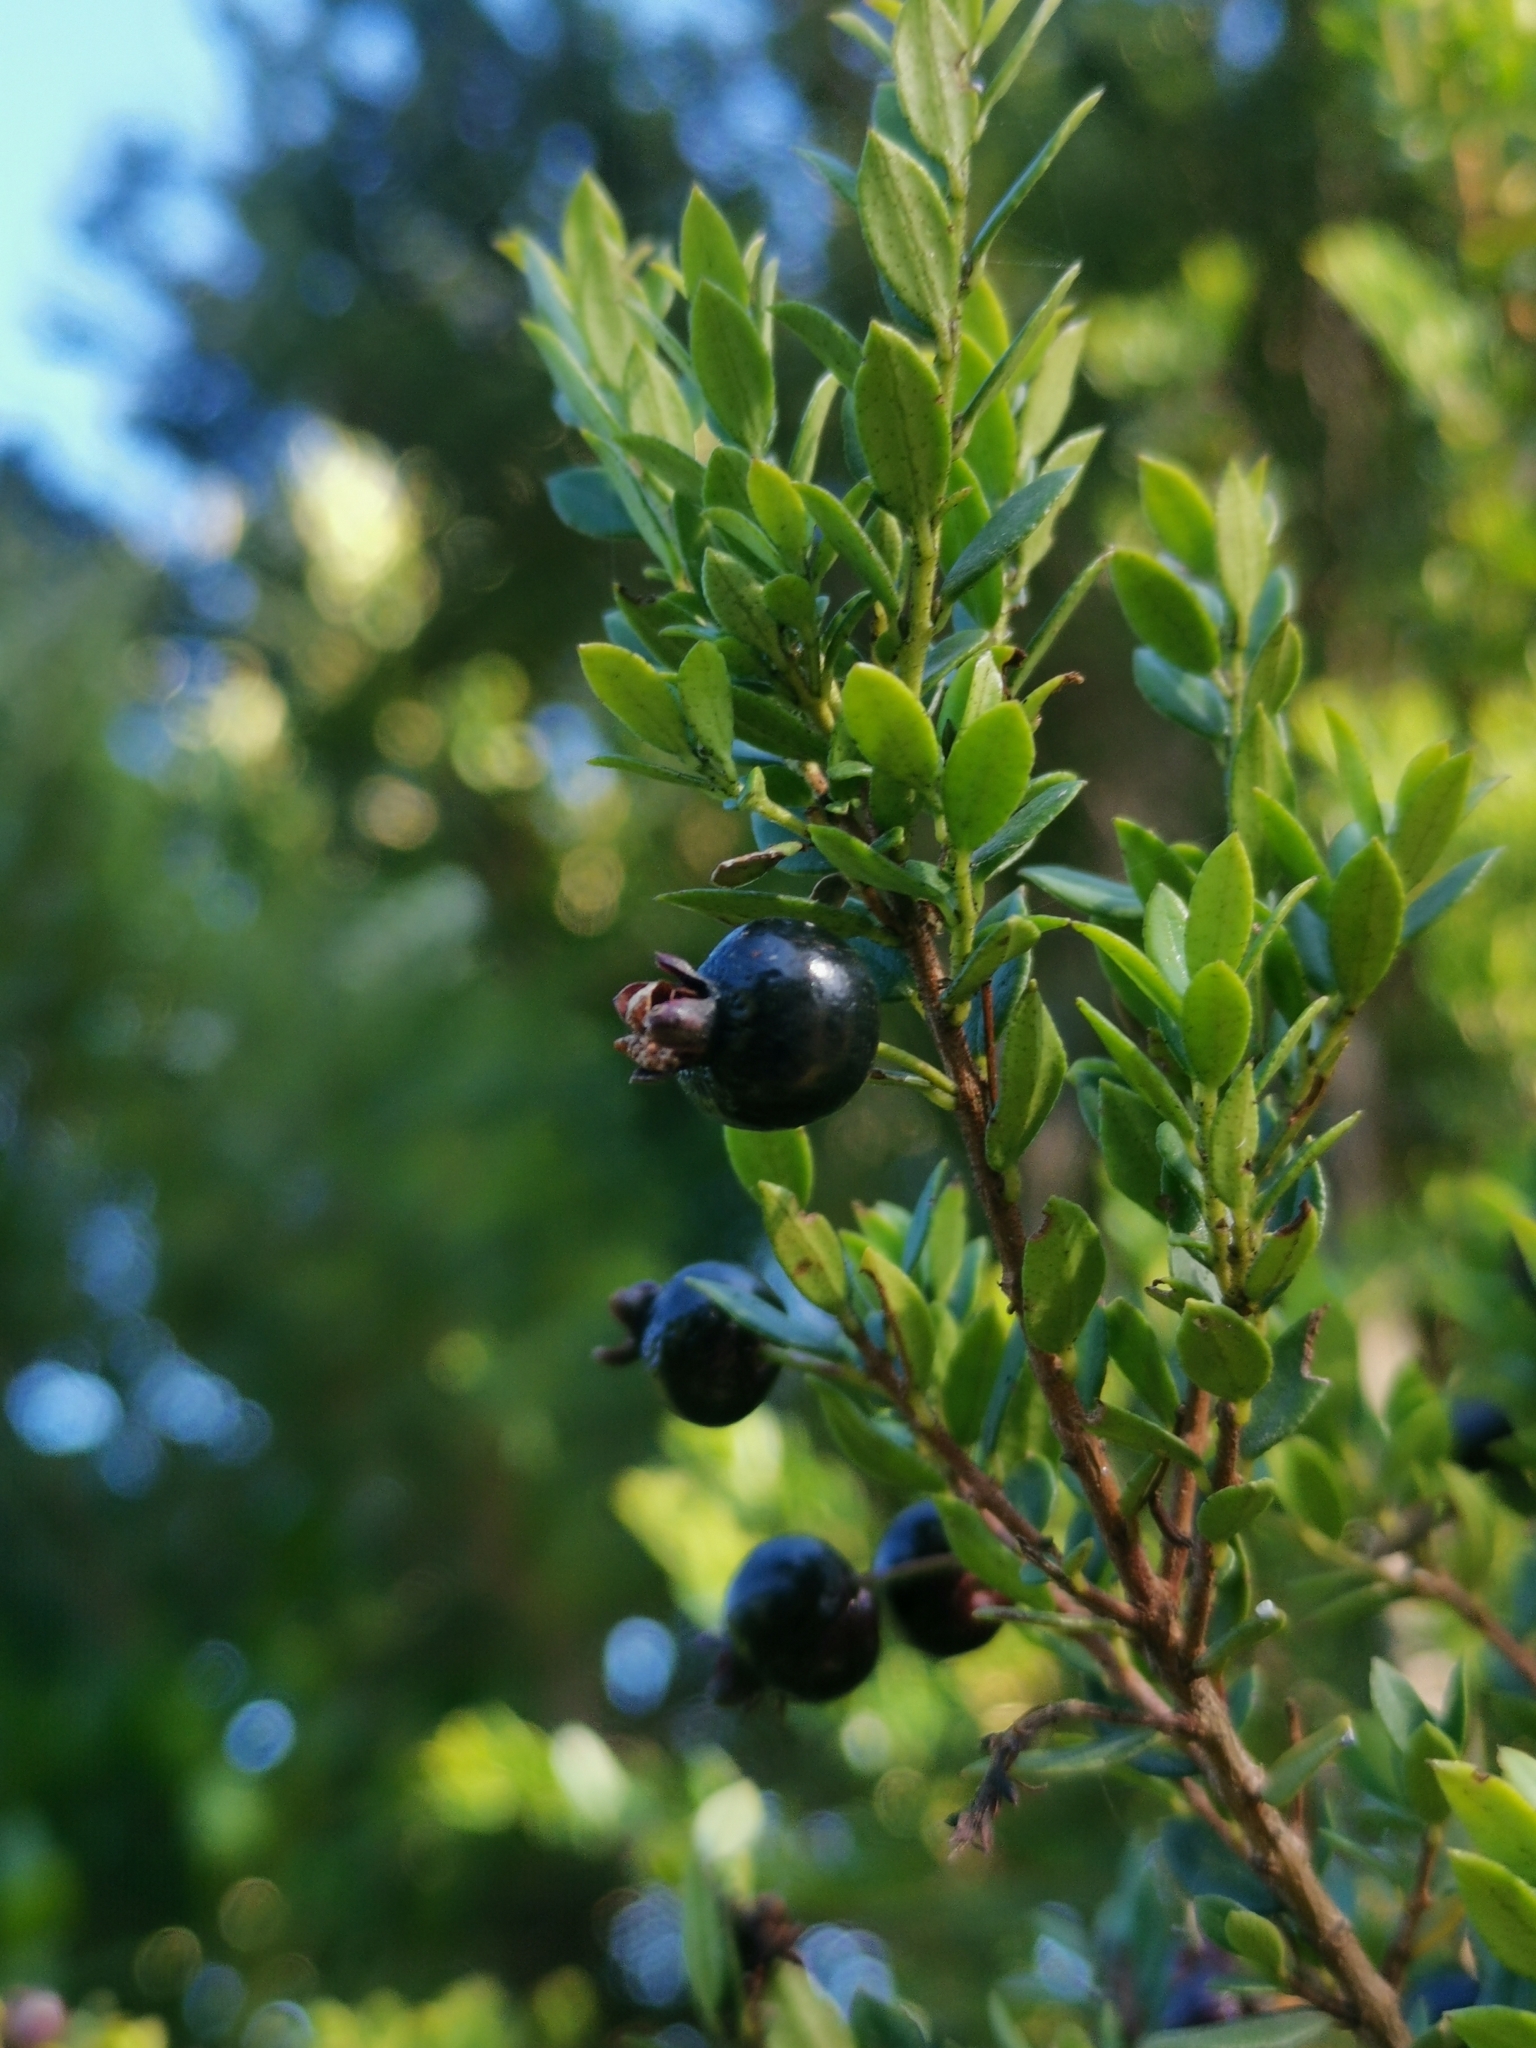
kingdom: Plantae
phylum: Tracheophyta
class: Magnoliopsida
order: Myrtales
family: Myrtaceae
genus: Luma
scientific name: Luma chequen
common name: Cheken
